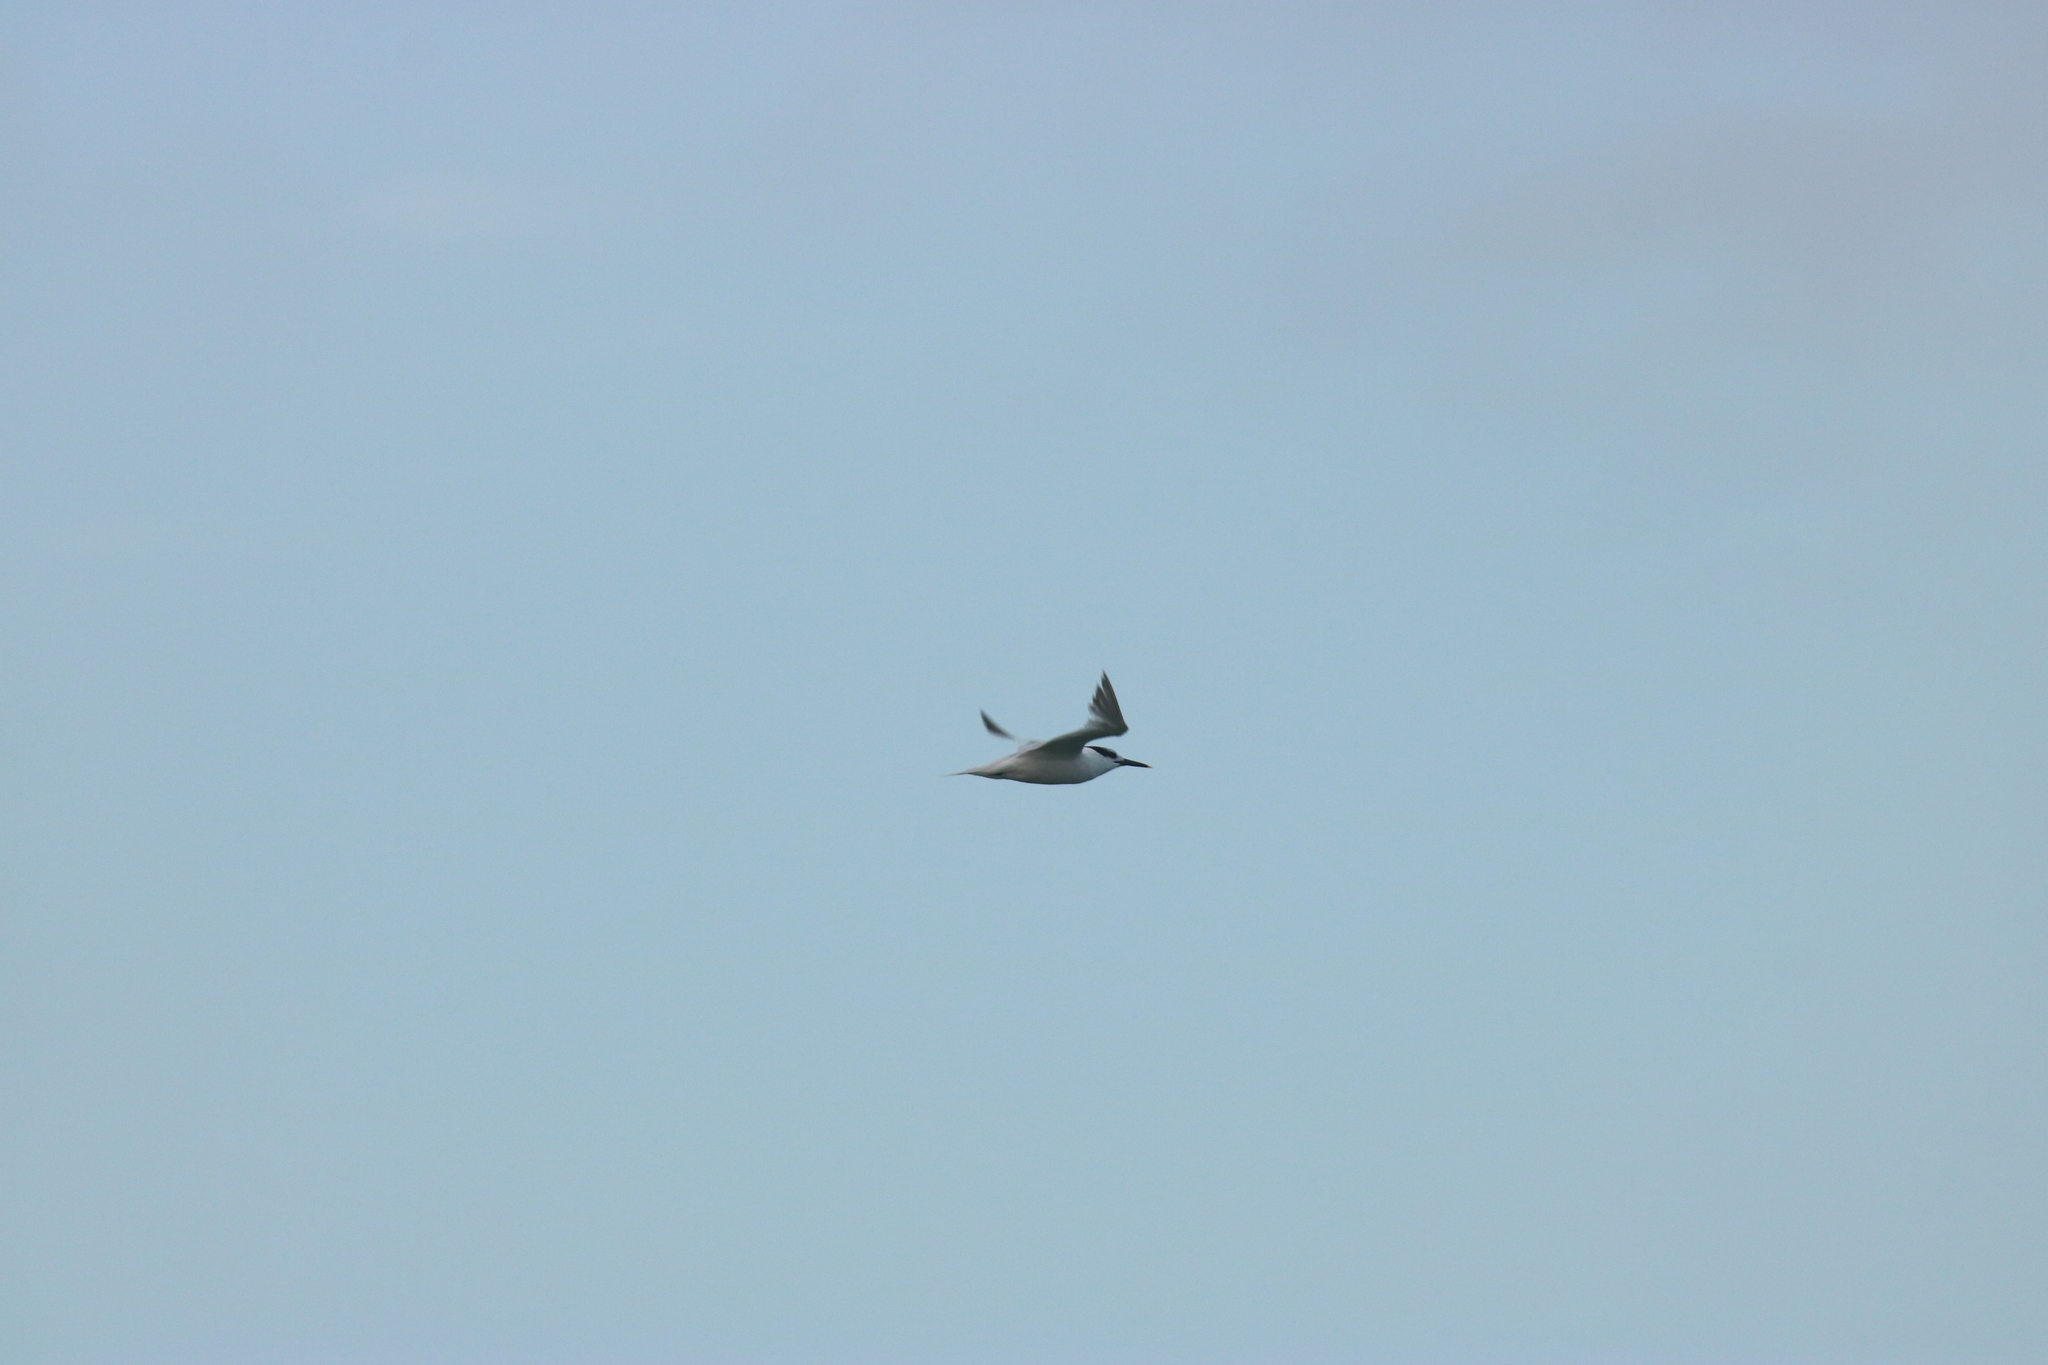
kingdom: Animalia
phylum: Chordata
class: Aves
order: Charadriiformes
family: Laridae
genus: Thalasseus
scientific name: Thalasseus sandvicensis
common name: Sandwich tern
